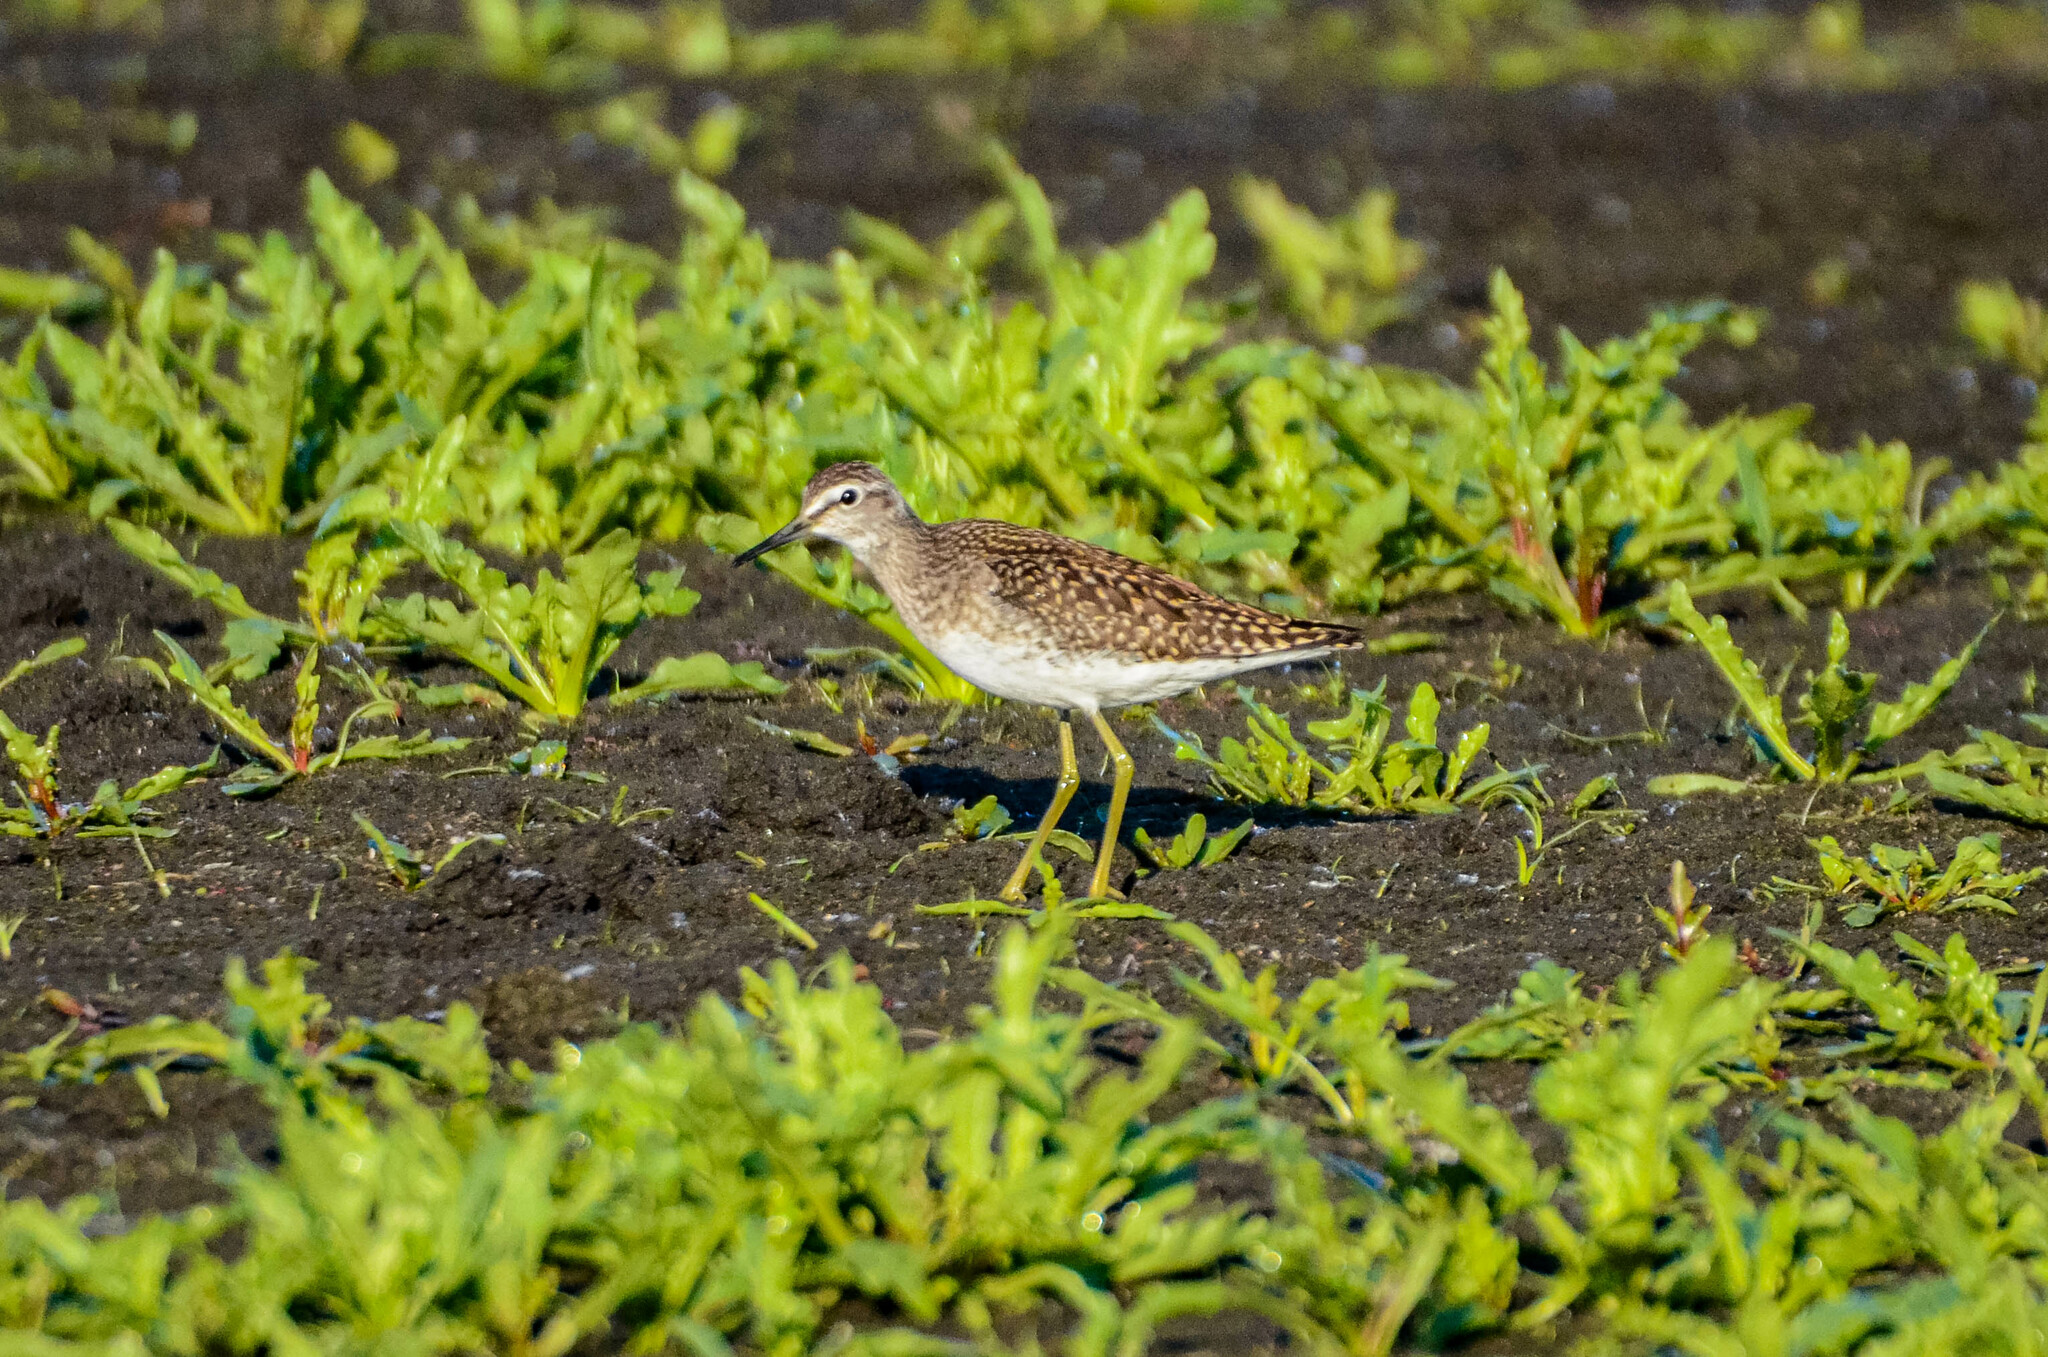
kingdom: Animalia
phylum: Chordata
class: Aves
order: Charadriiformes
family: Scolopacidae
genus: Tringa
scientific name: Tringa glareola
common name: Wood sandpiper
